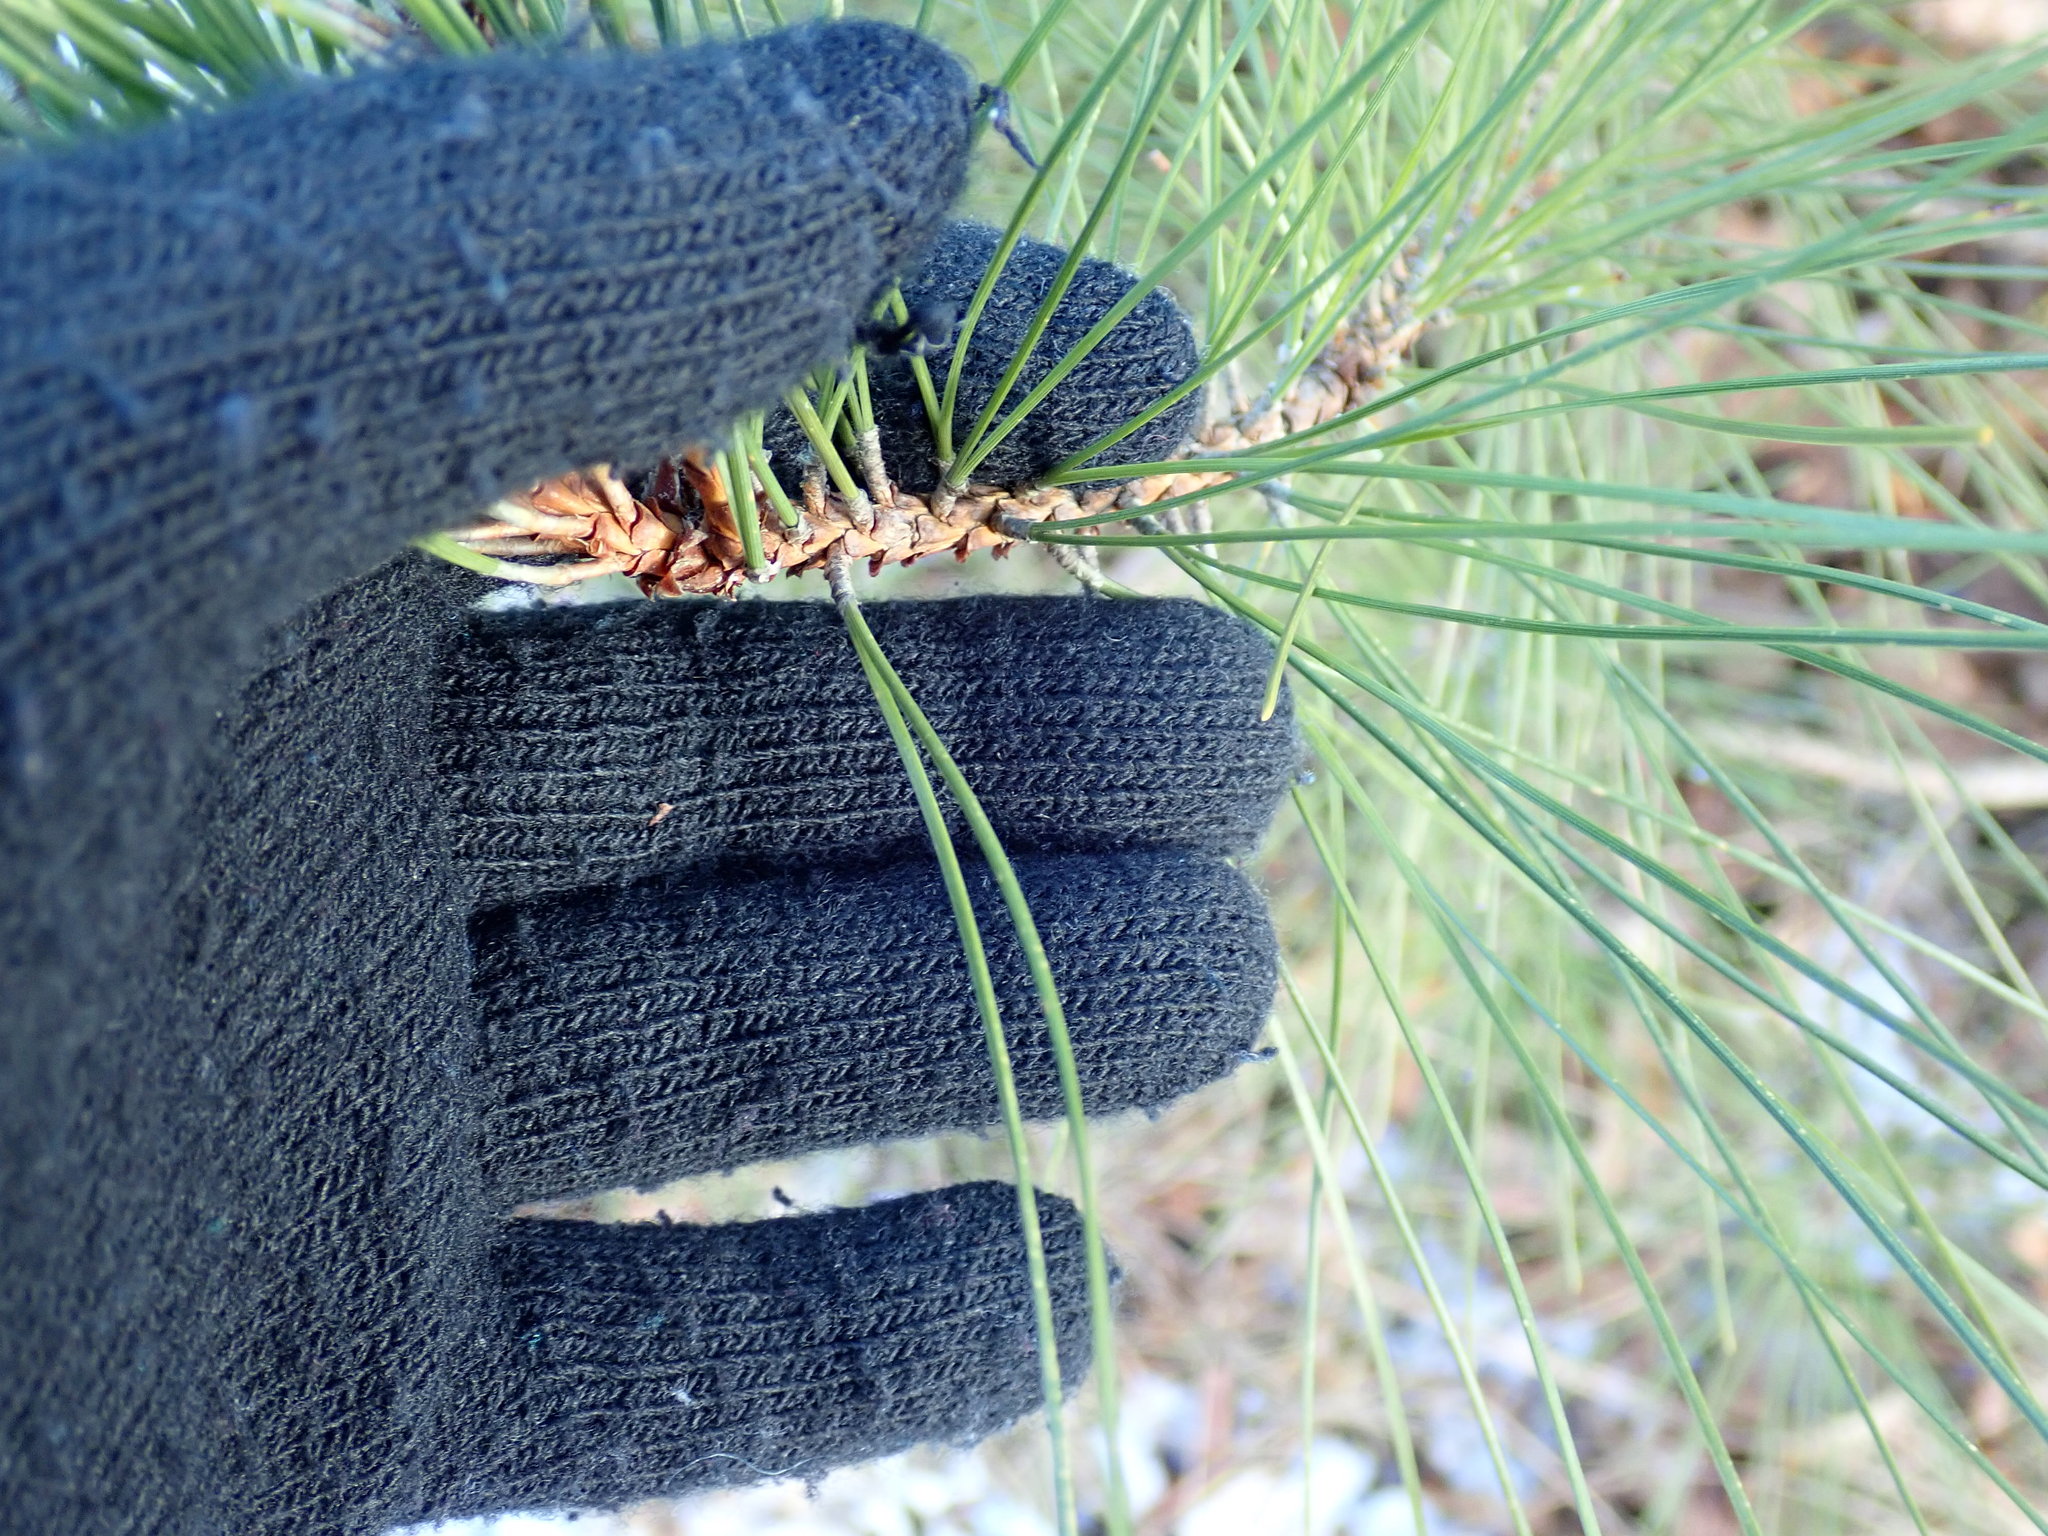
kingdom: Plantae
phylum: Tracheophyta
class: Pinopsida
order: Pinales
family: Pinaceae
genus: Pinus
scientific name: Pinus resinosa
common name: Norway pine
